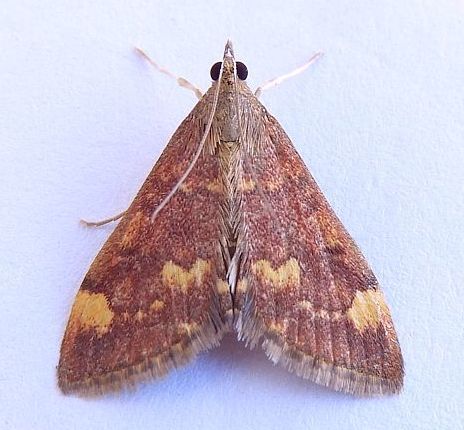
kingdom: Animalia
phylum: Arthropoda
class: Insecta
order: Lepidoptera
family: Crambidae
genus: Pyrausta
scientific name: Pyrausta flavibrunnea
